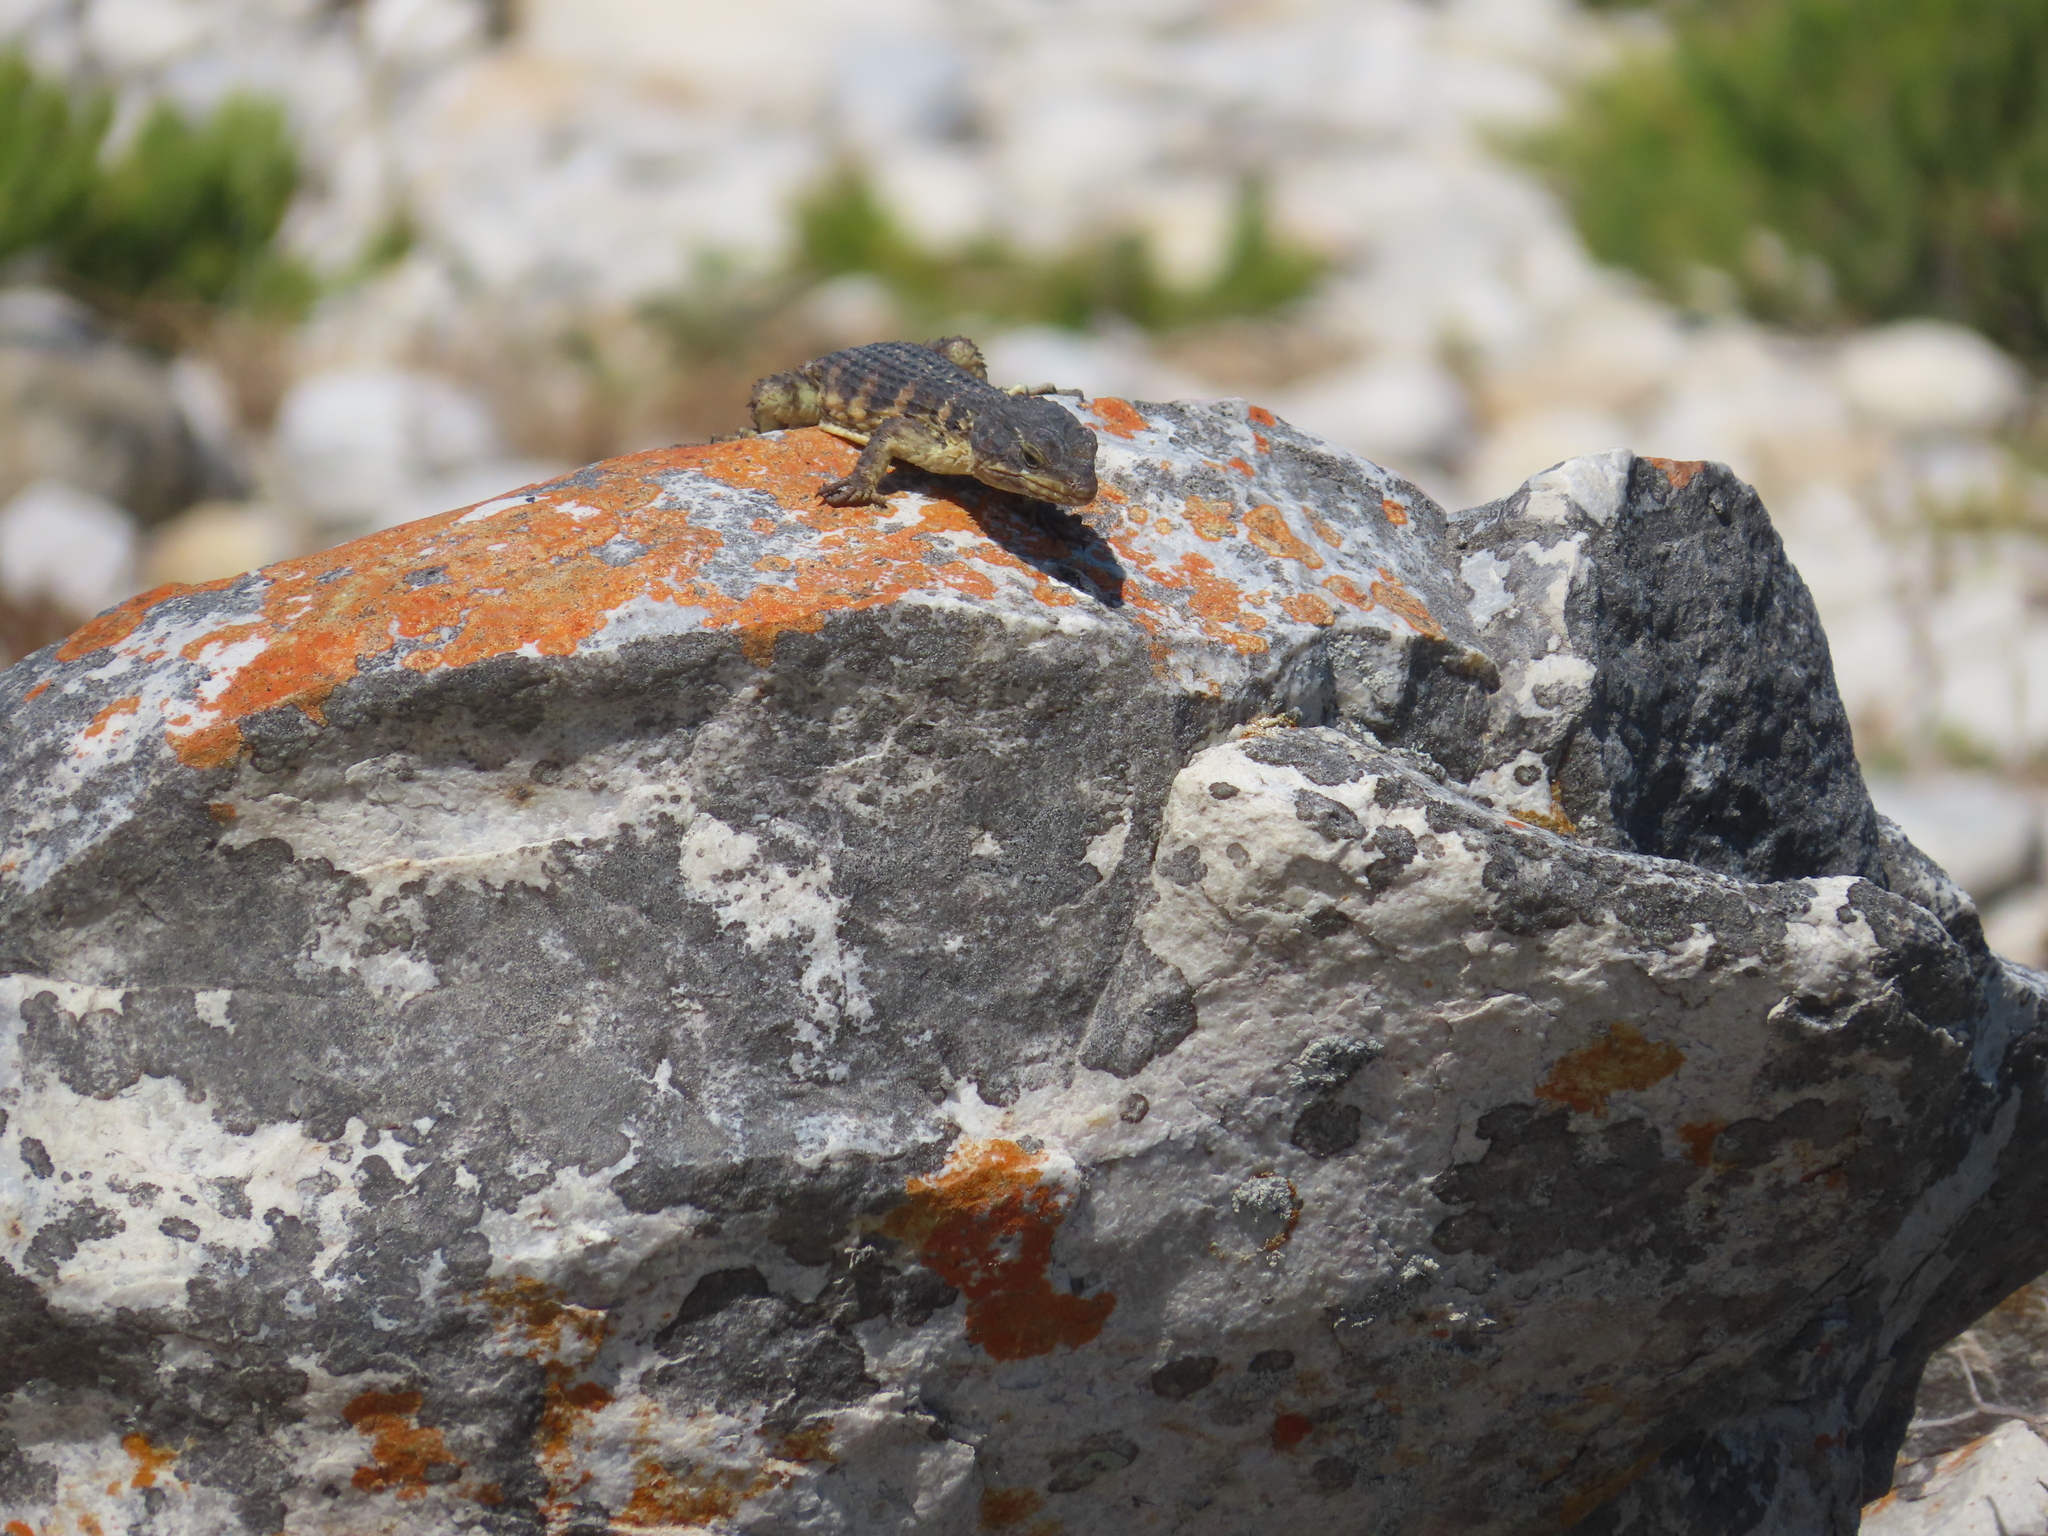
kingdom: Animalia
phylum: Chordata
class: Squamata
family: Cordylidae
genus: Cordylus
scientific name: Cordylus cordylus
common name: Cape girdled lizard
